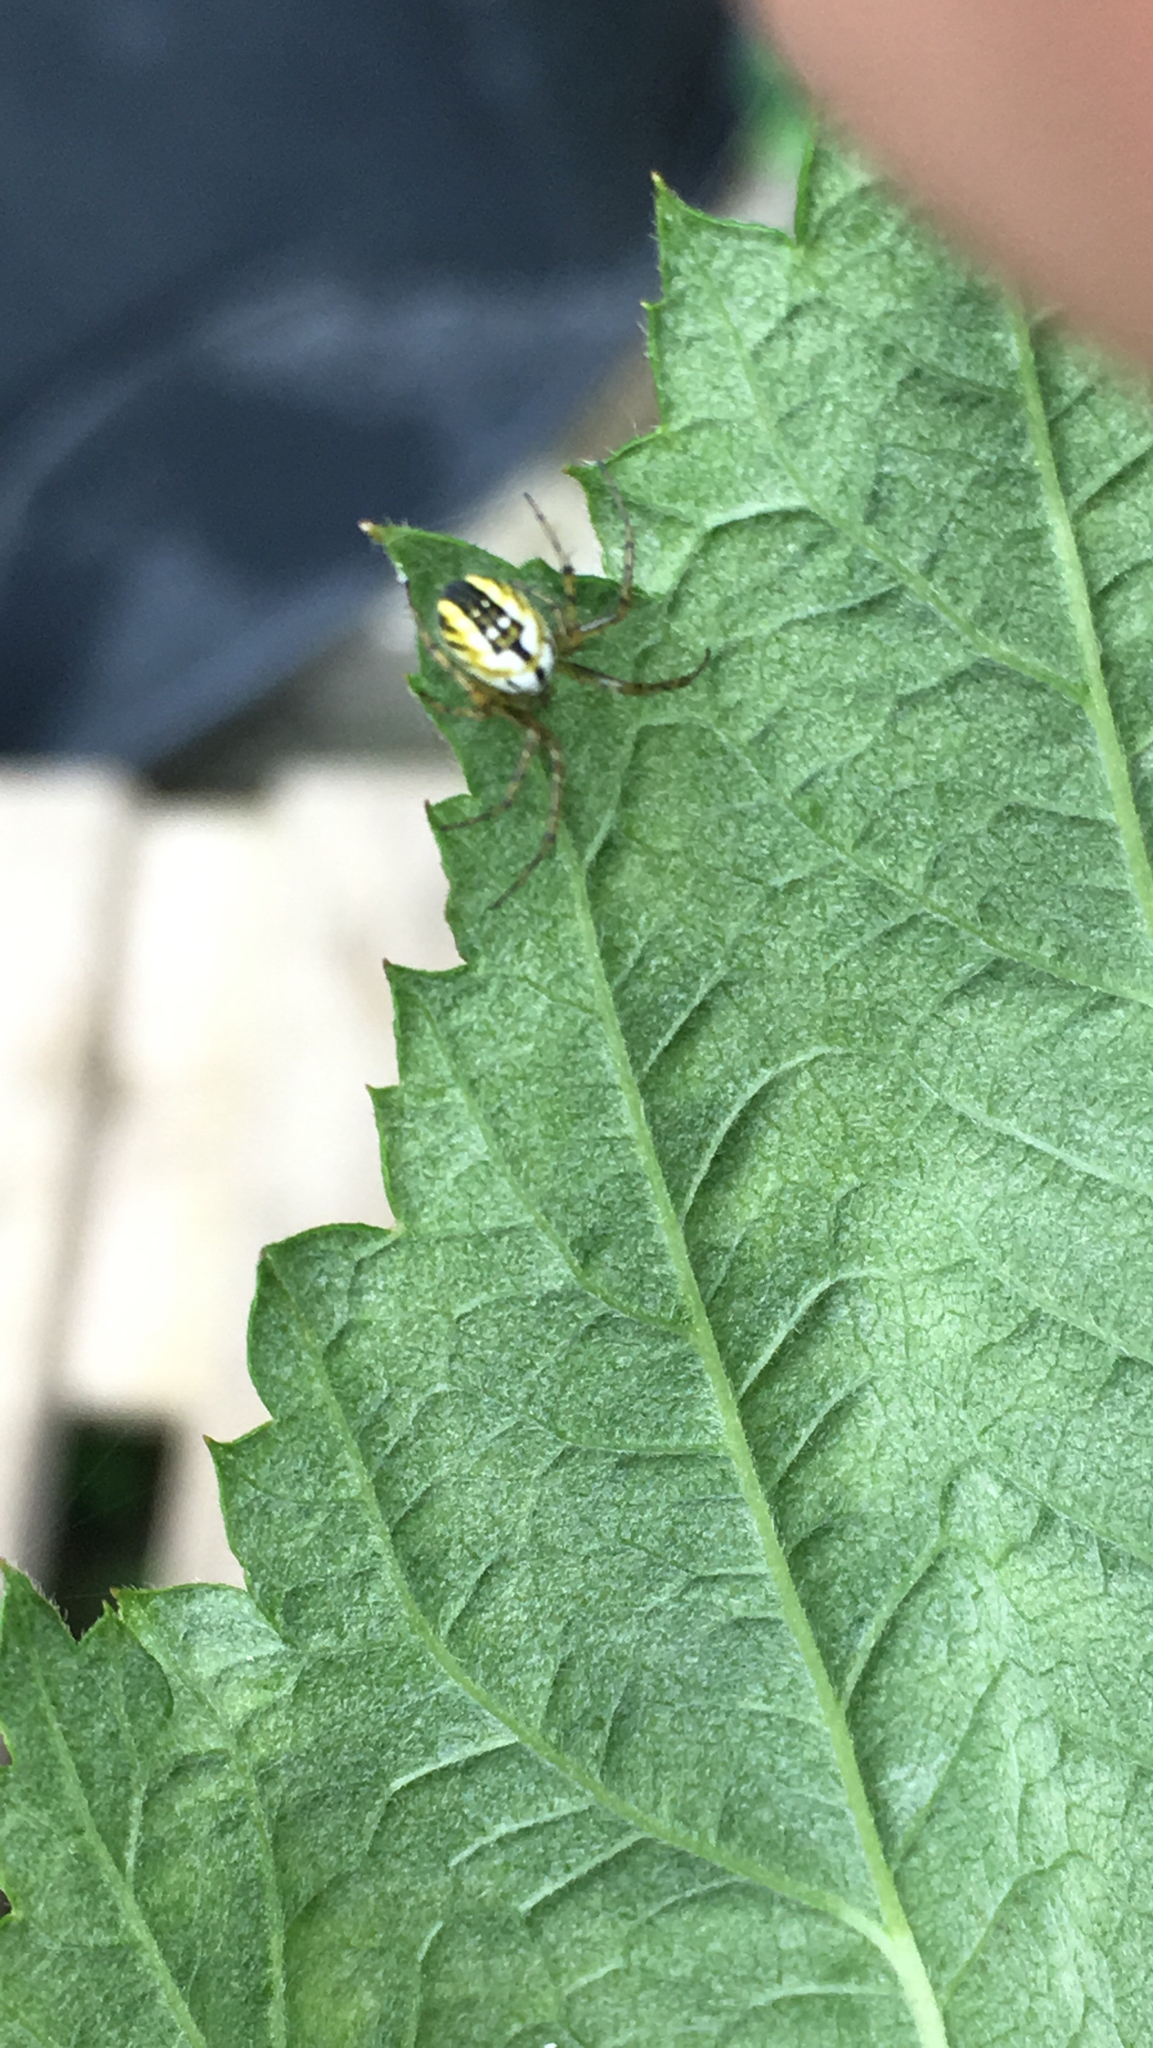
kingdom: Animalia
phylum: Arthropoda
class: Arachnida
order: Araneae
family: Araneidae
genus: Mangora
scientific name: Mangora acalypha
